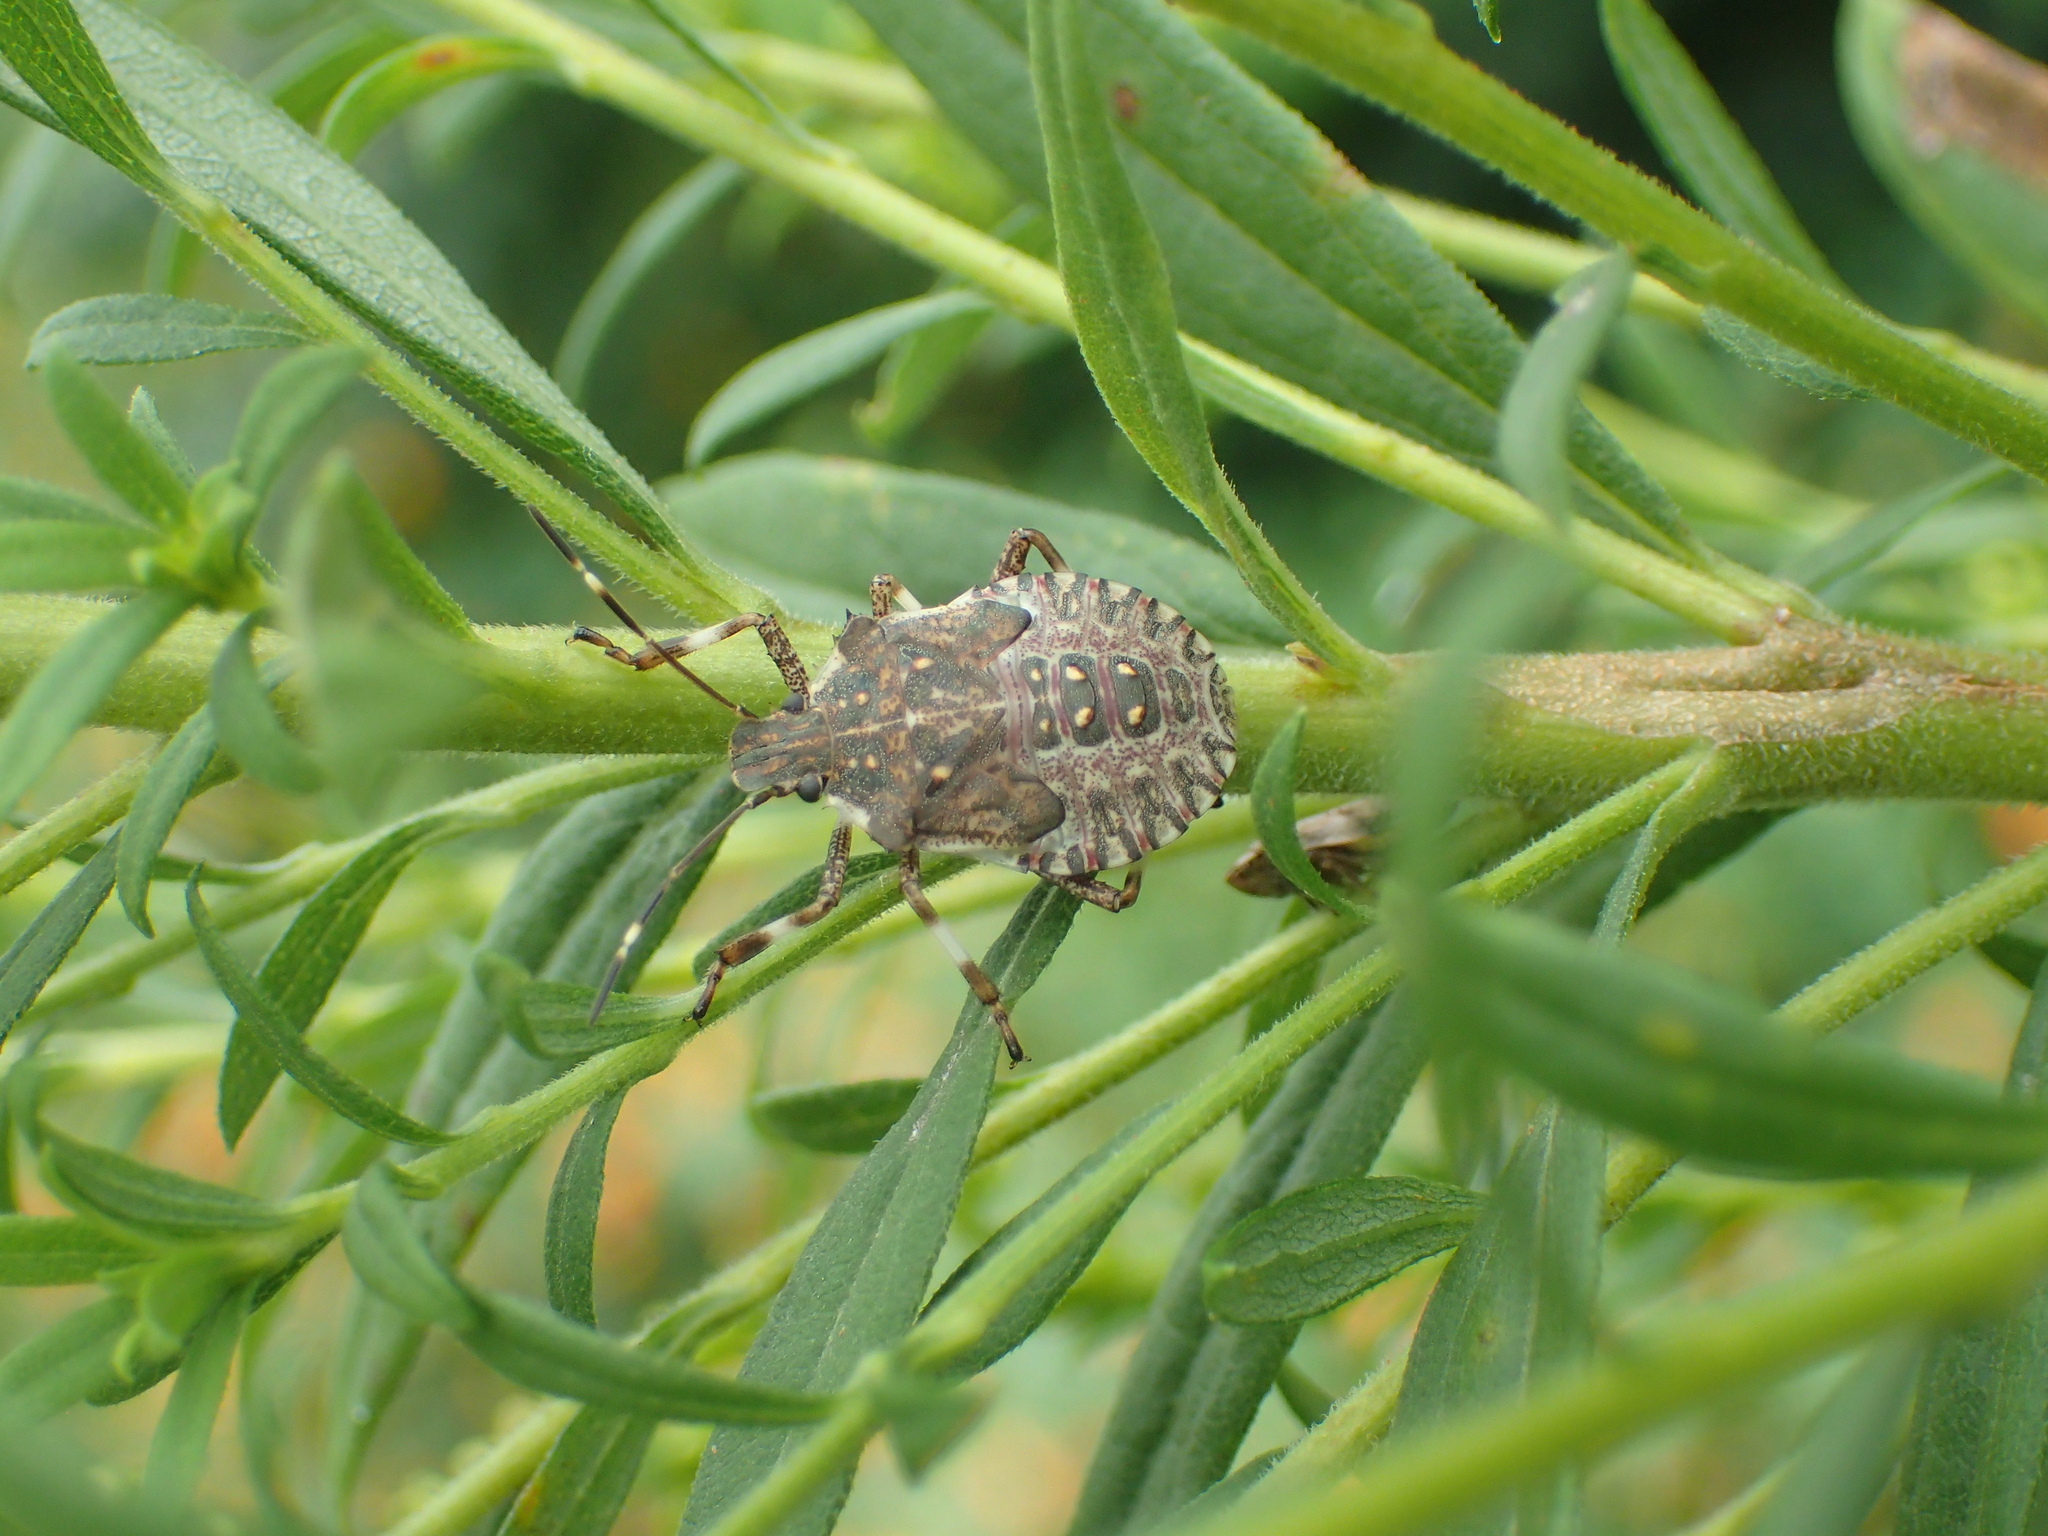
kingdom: Animalia
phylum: Arthropoda
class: Insecta
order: Hemiptera
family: Pentatomidae
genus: Halyomorpha
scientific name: Halyomorpha halys
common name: Brown marmorated stink bug
